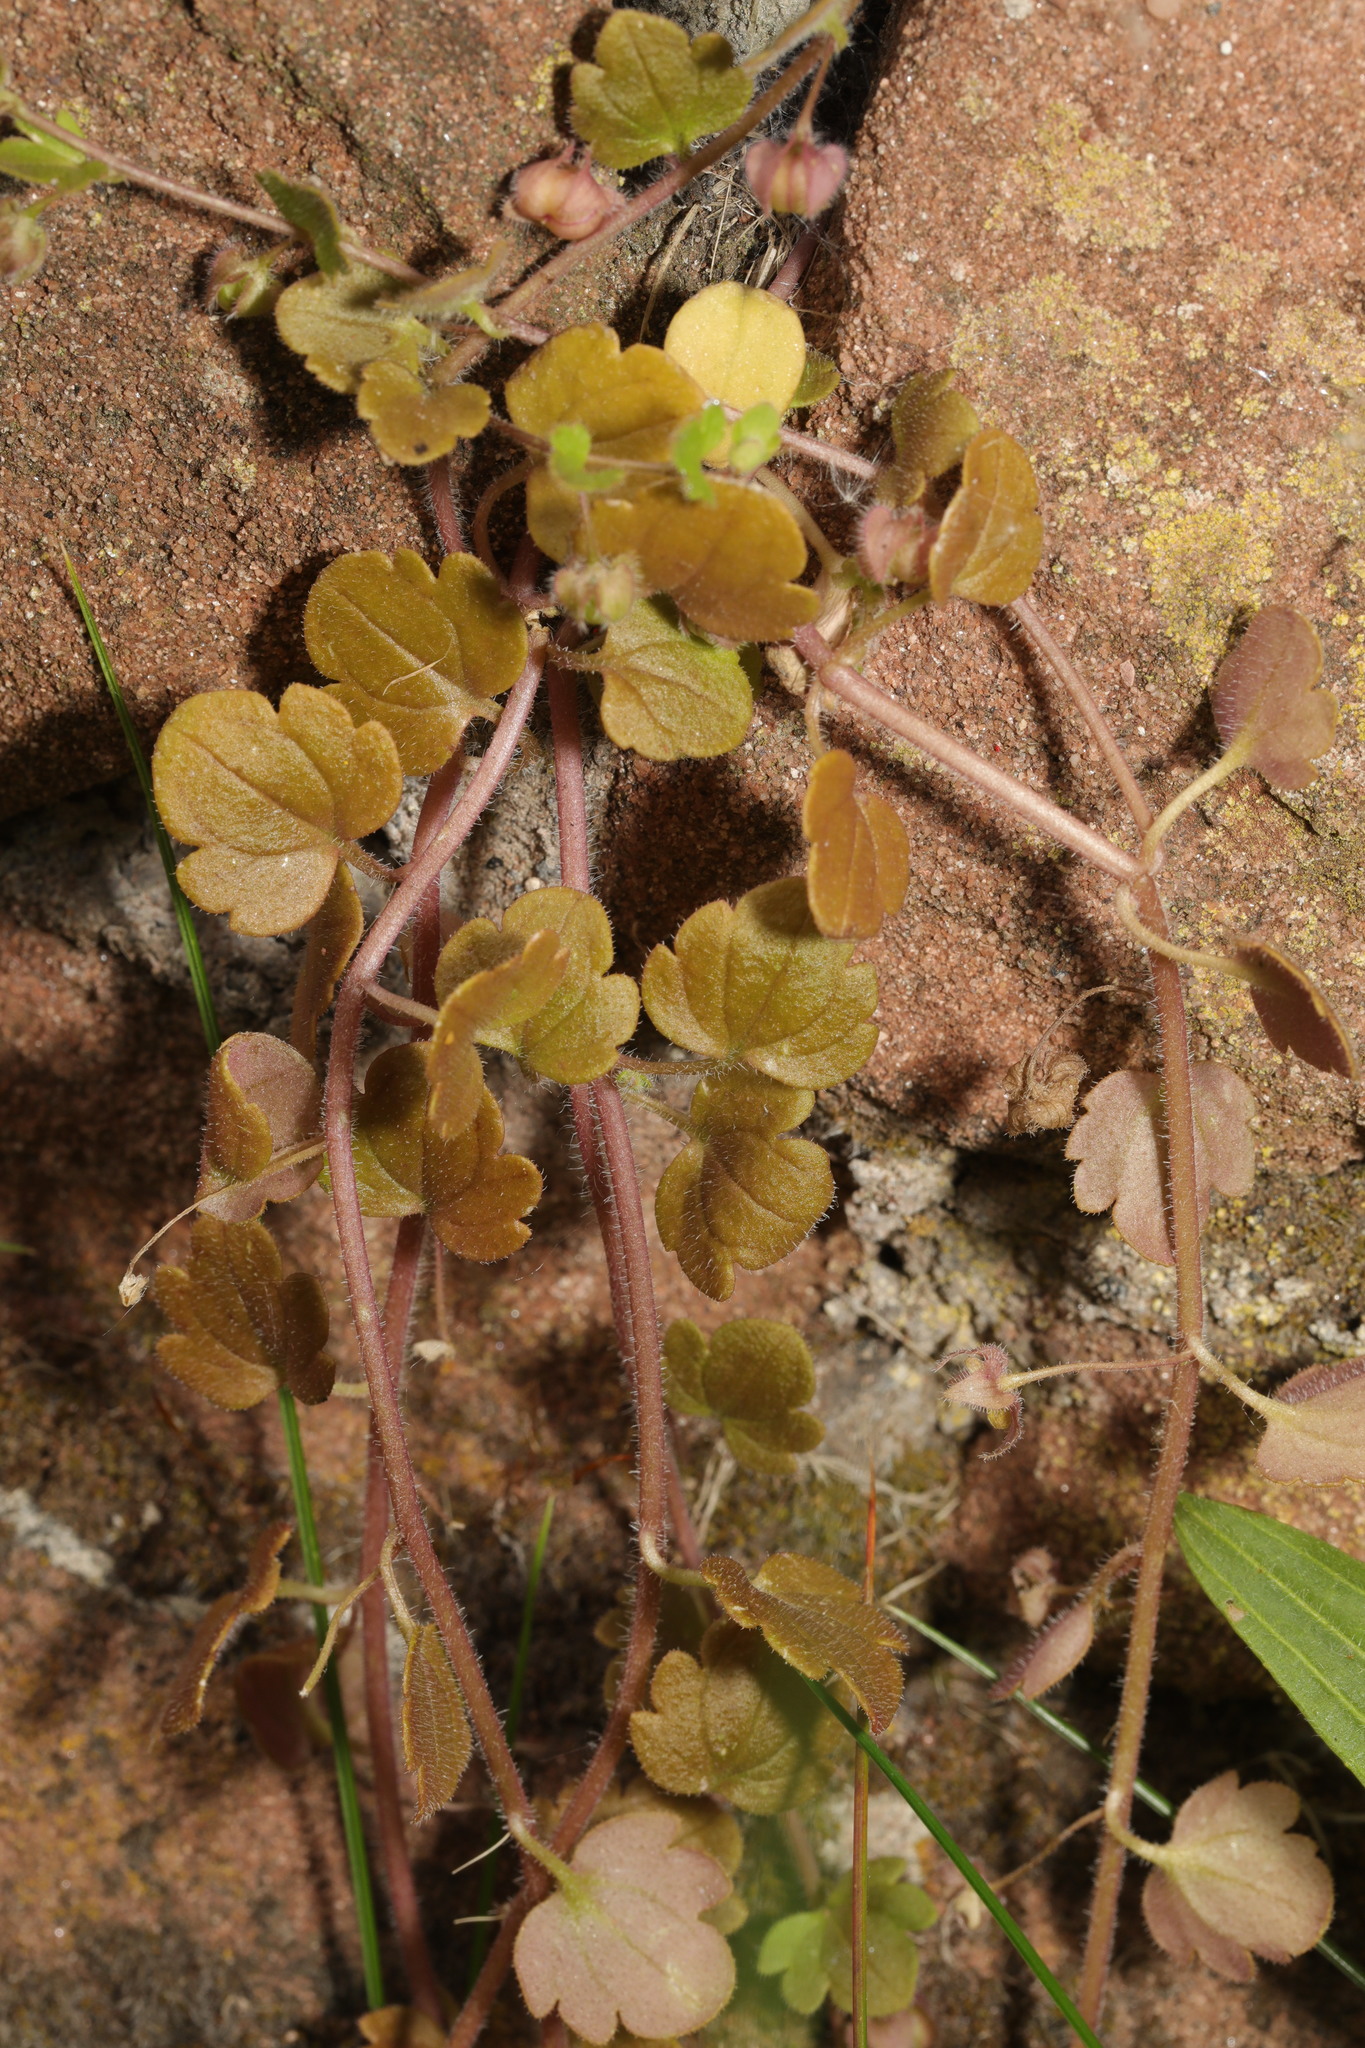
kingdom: Plantae
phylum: Tracheophyta
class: Magnoliopsida
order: Lamiales
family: Plantaginaceae
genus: Veronica
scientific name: Veronica hederifolia
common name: Ivy-leaved speedwell
